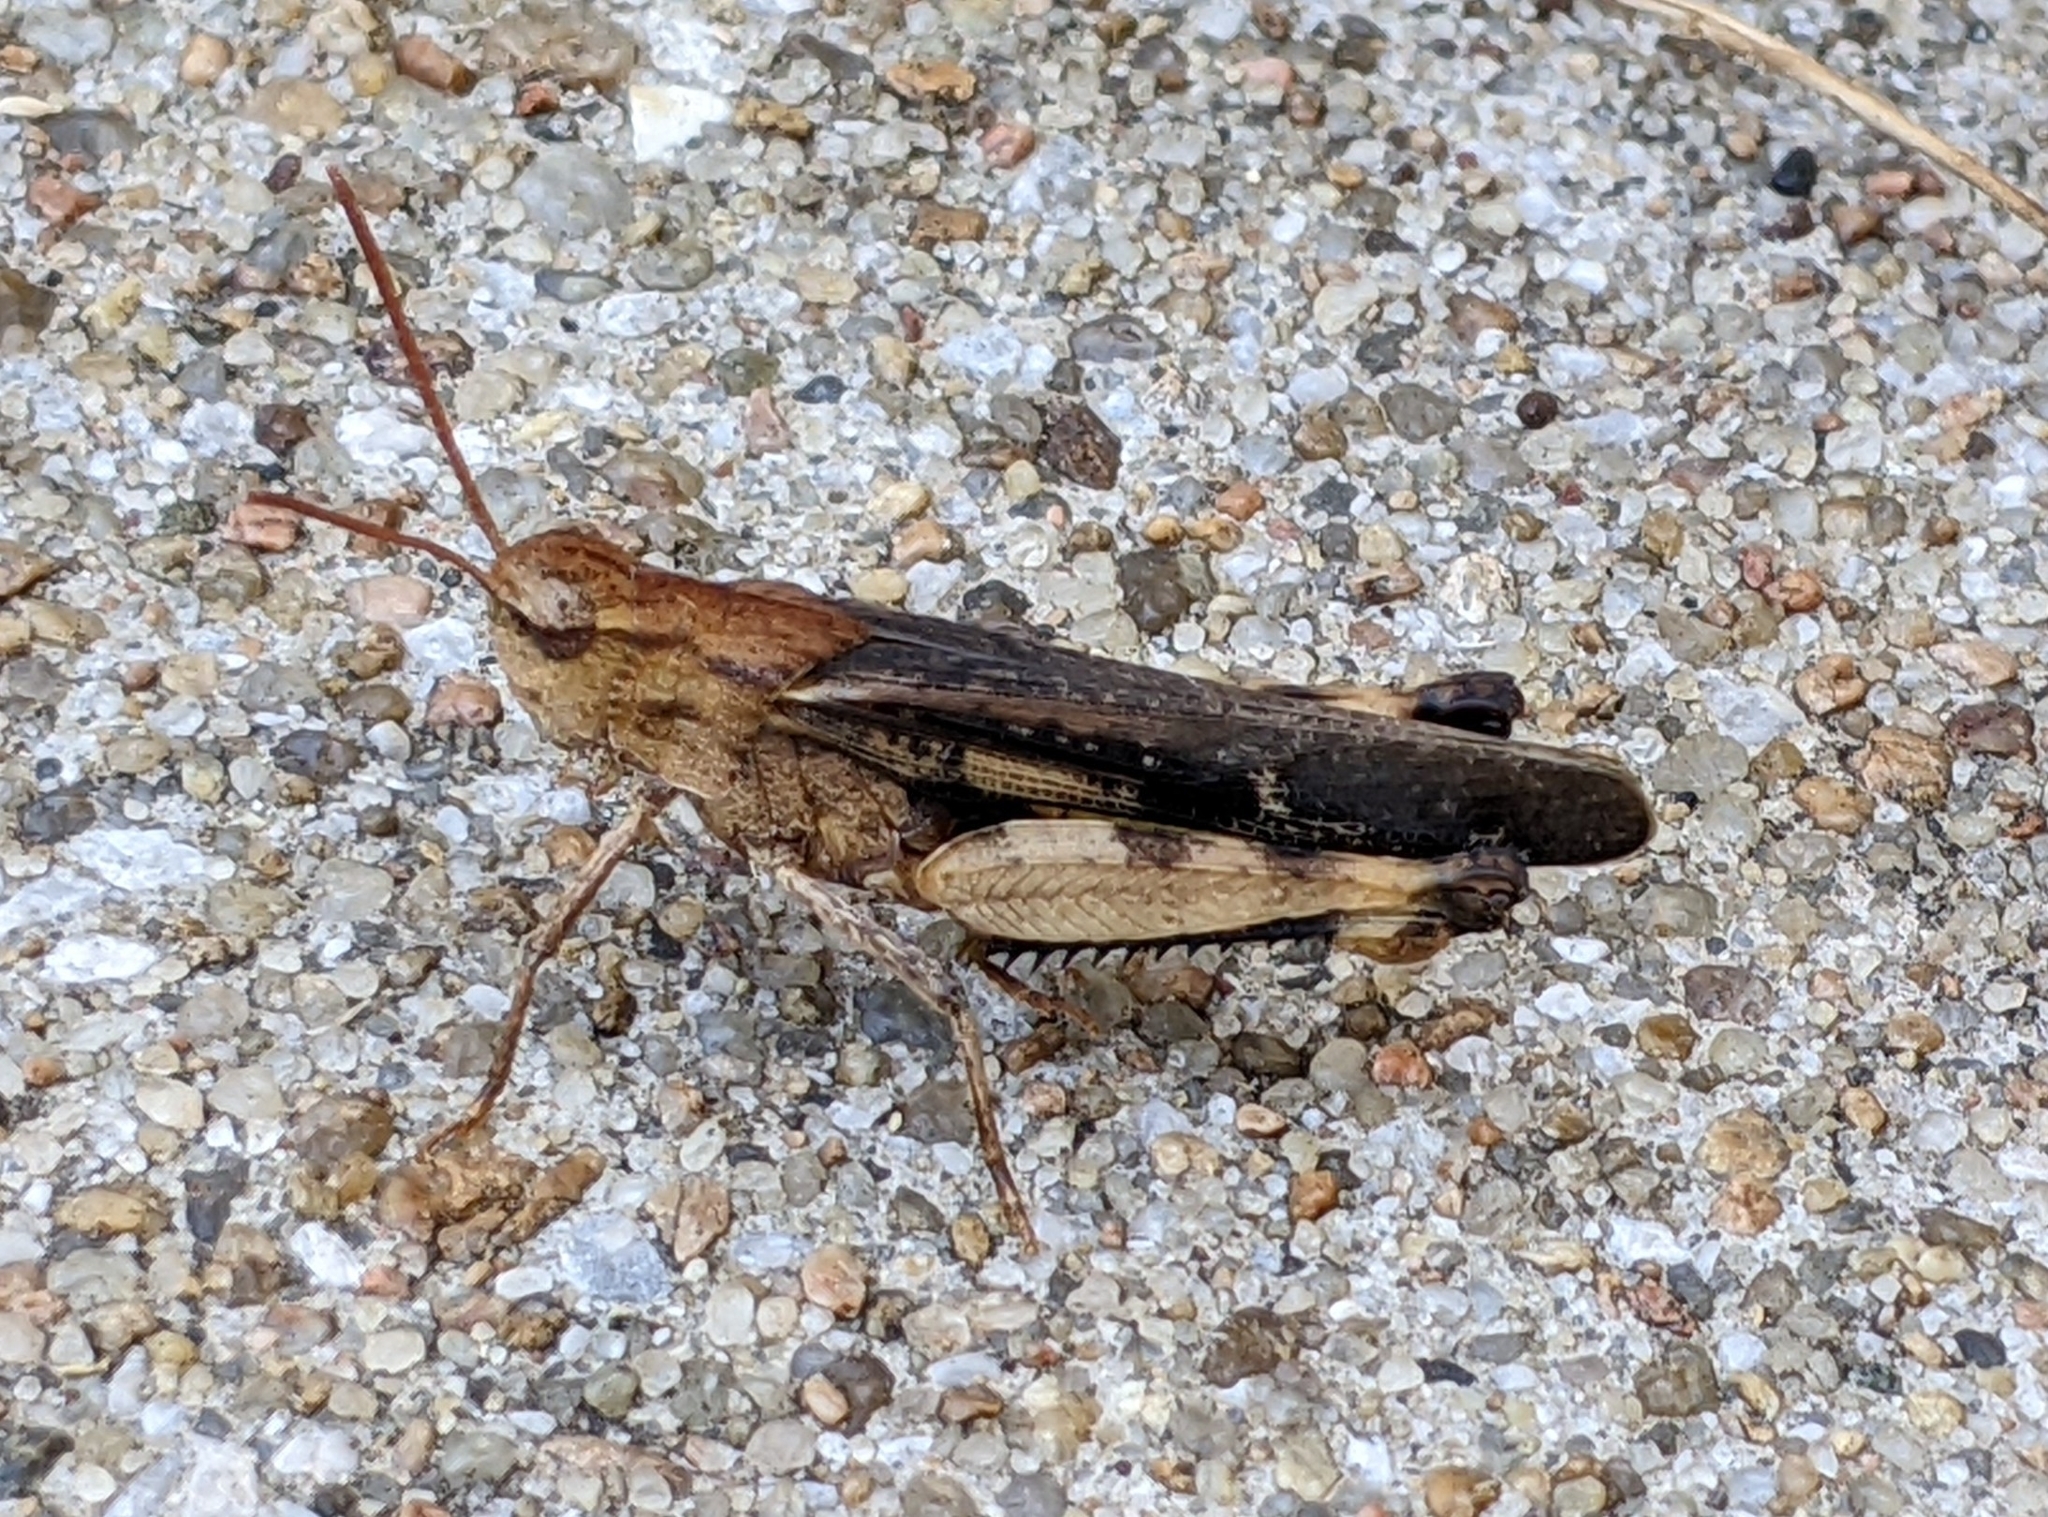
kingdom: Animalia
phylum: Arthropoda
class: Insecta
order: Orthoptera
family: Acrididae
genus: Chortophaga
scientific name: Chortophaga viridifasciata
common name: Green-striped grasshopper
